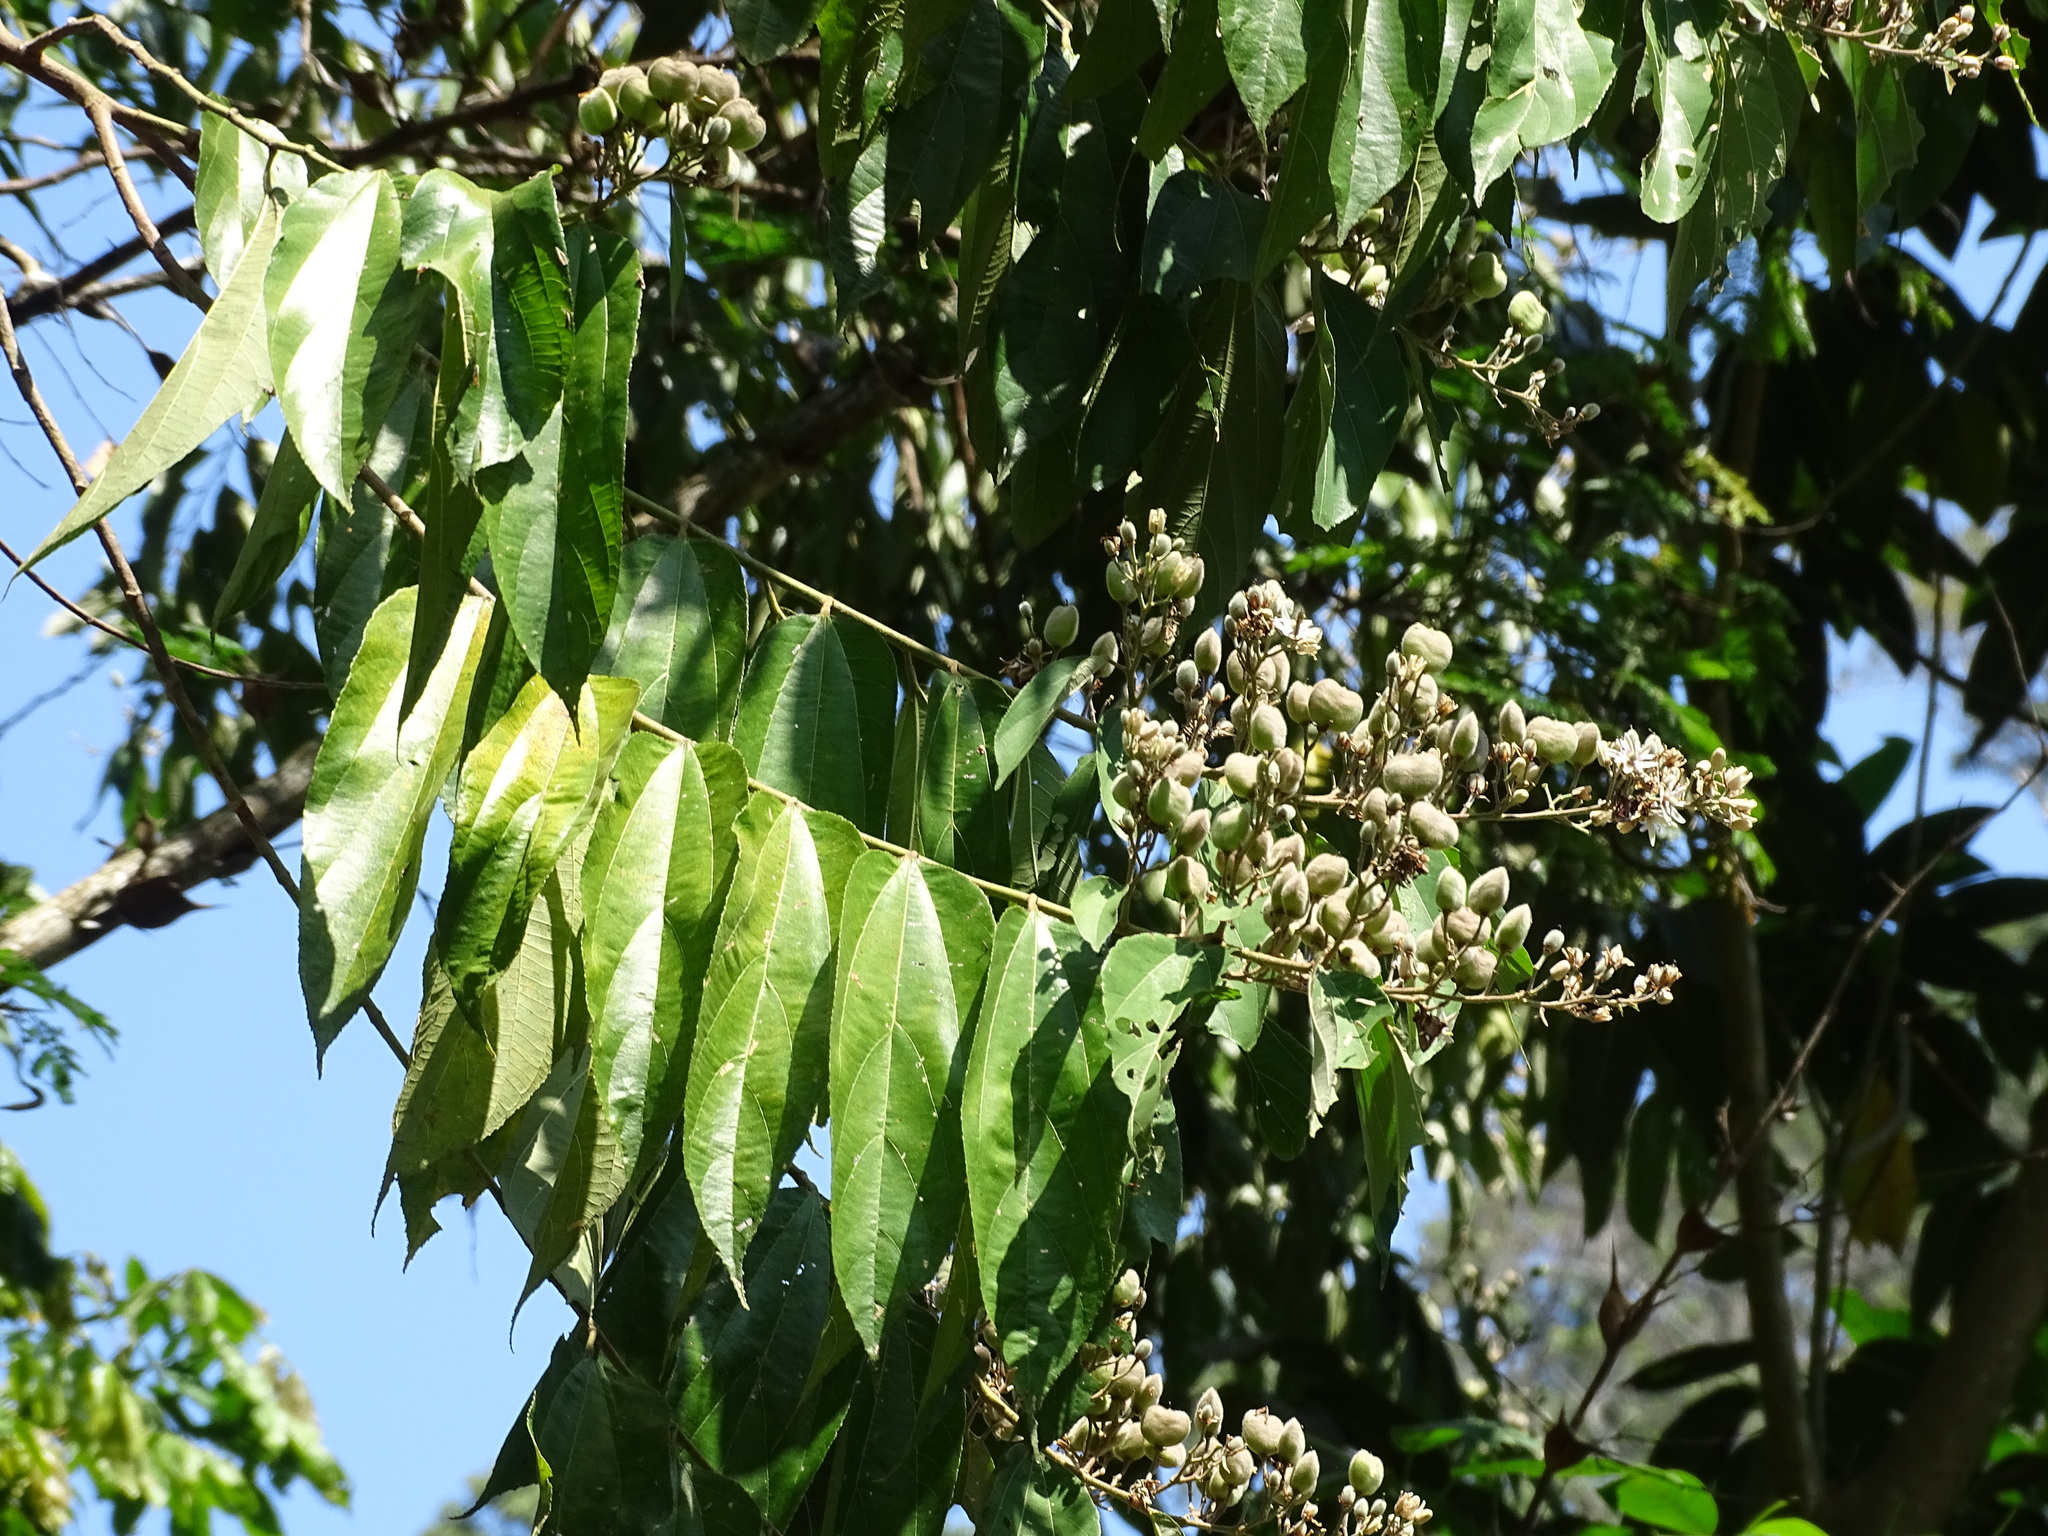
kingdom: Plantae
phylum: Tracheophyta
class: Magnoliopsida
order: Malvales
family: Malvaceae
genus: Trichospermum
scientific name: Trichospermum mexicanum
